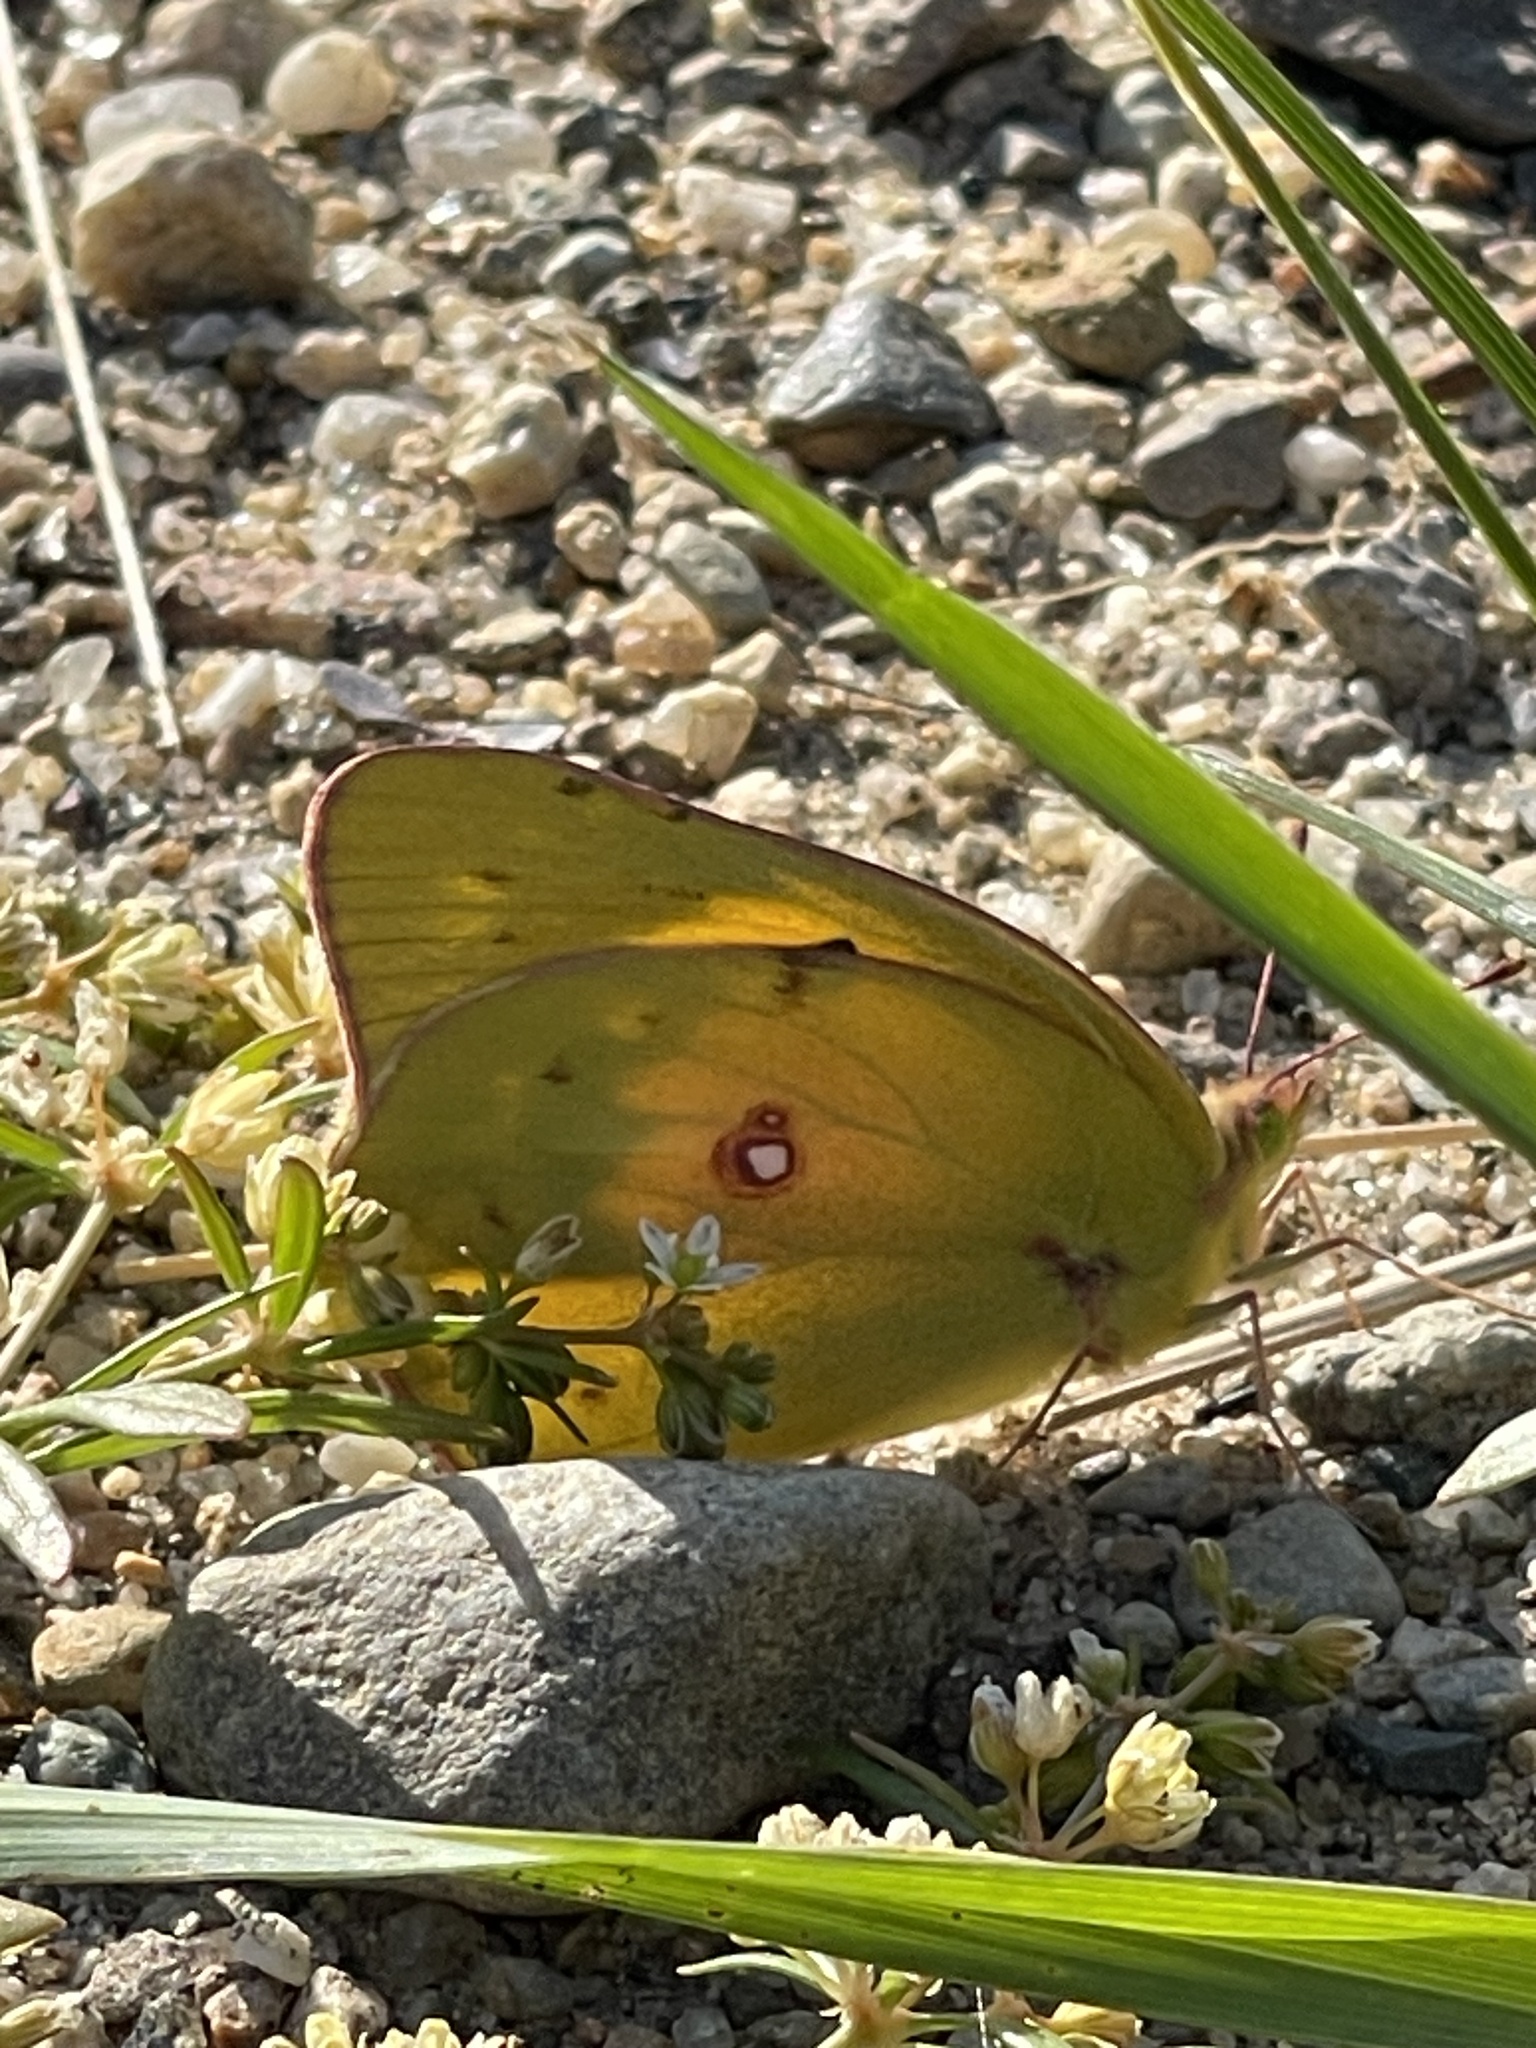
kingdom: Animalia
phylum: Arthropoda
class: Insecta
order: Lepidoptera
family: Pieridae
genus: Colias
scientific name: Colias eurytheme
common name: Alfalfa butterfly
